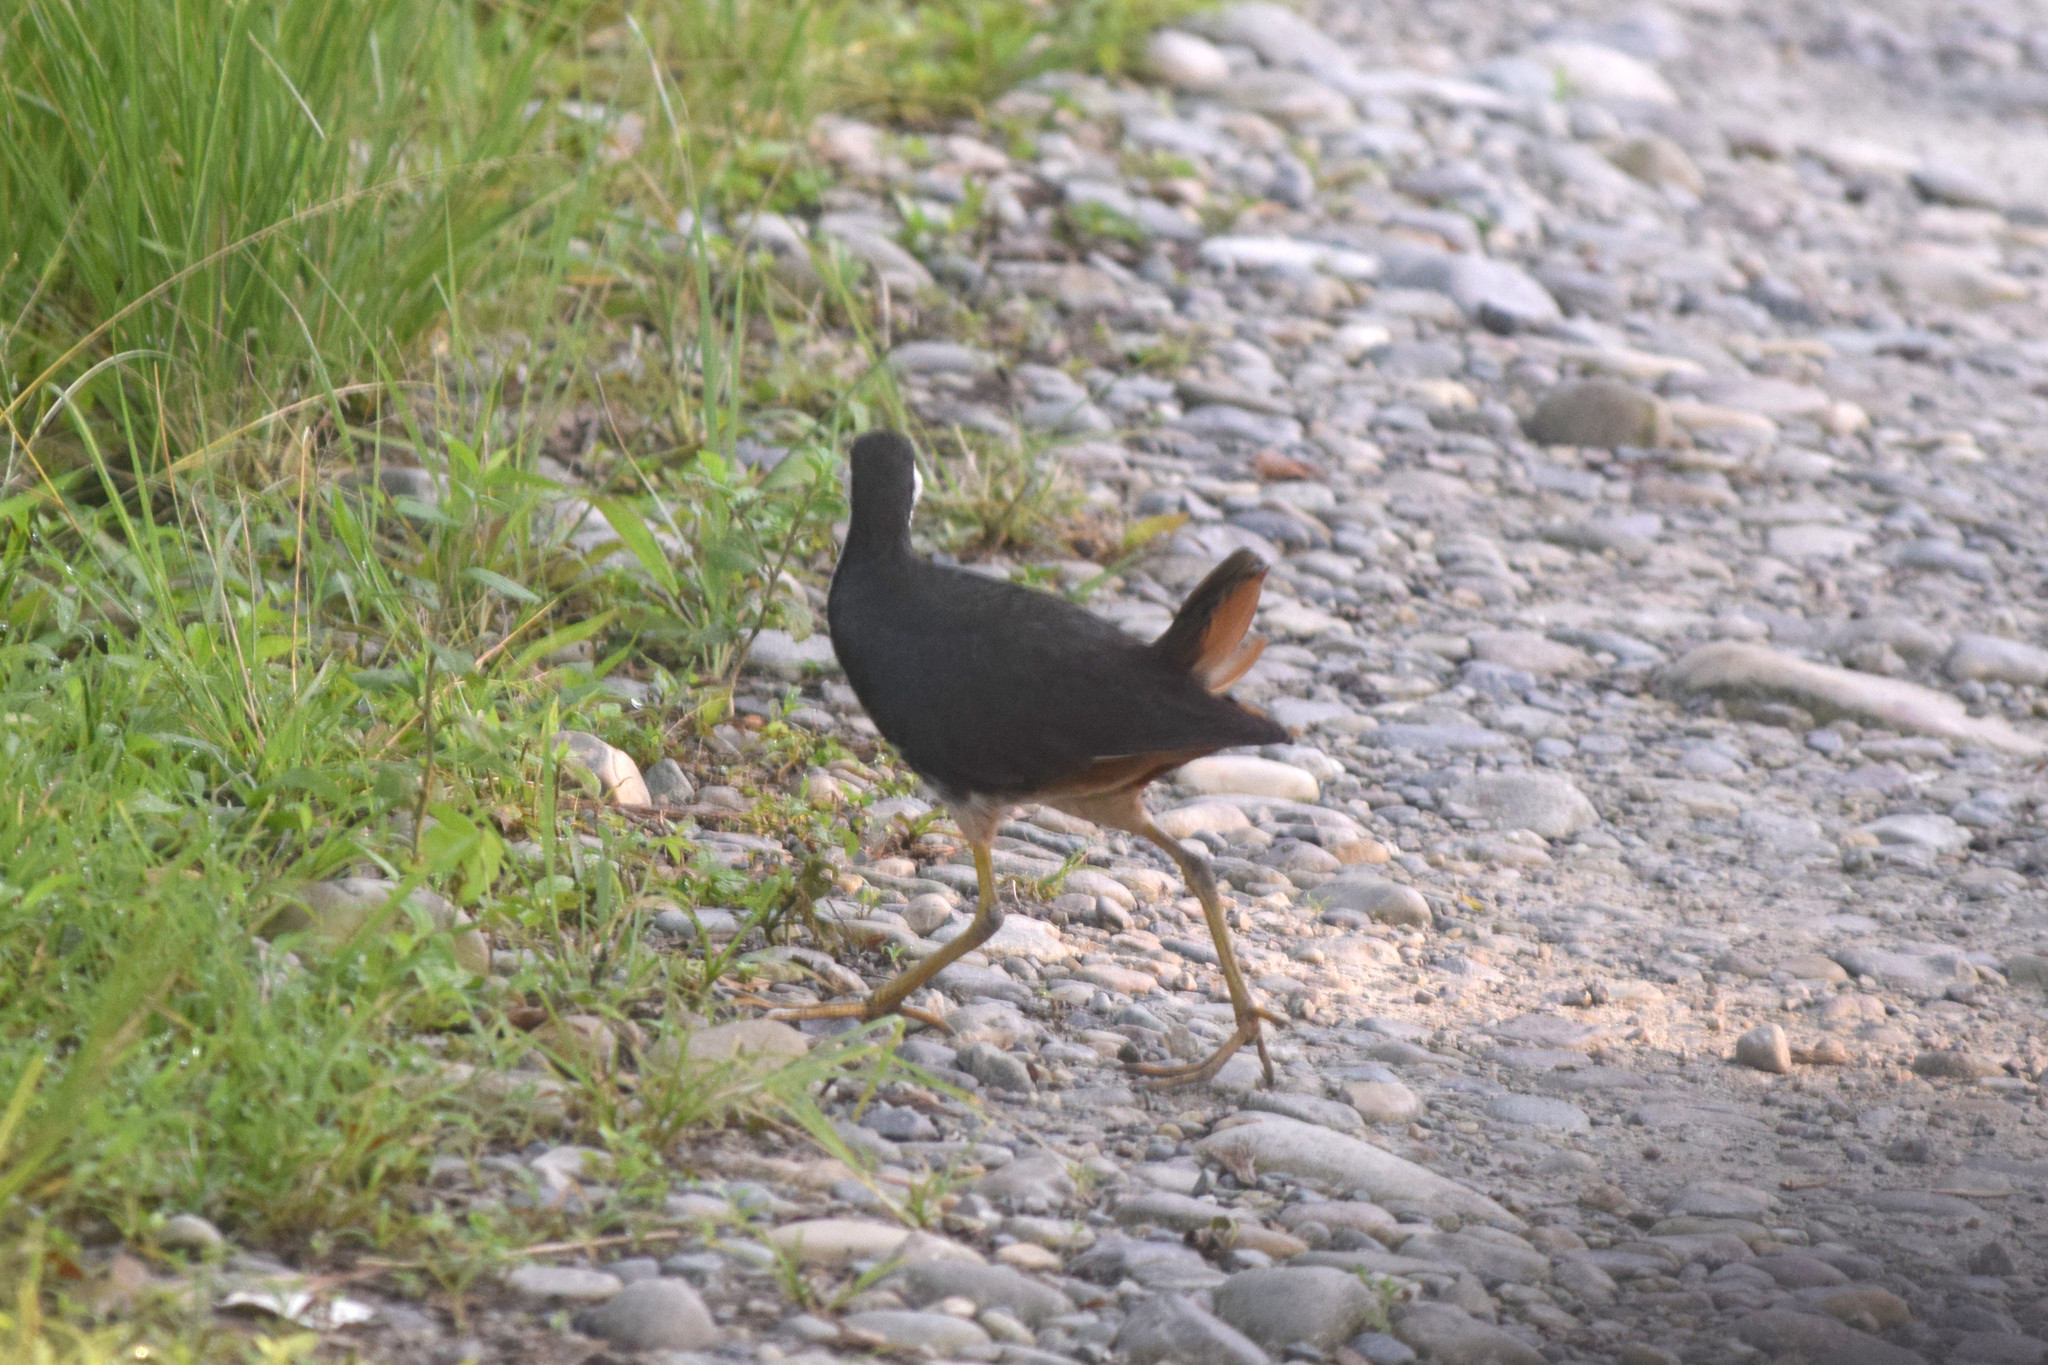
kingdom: Animalia
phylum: Chordata
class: Aves
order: Gruiformes
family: Rallidae
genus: Amaurornis
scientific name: Amaurornis phoenicurus
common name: White-breasted waterhen
